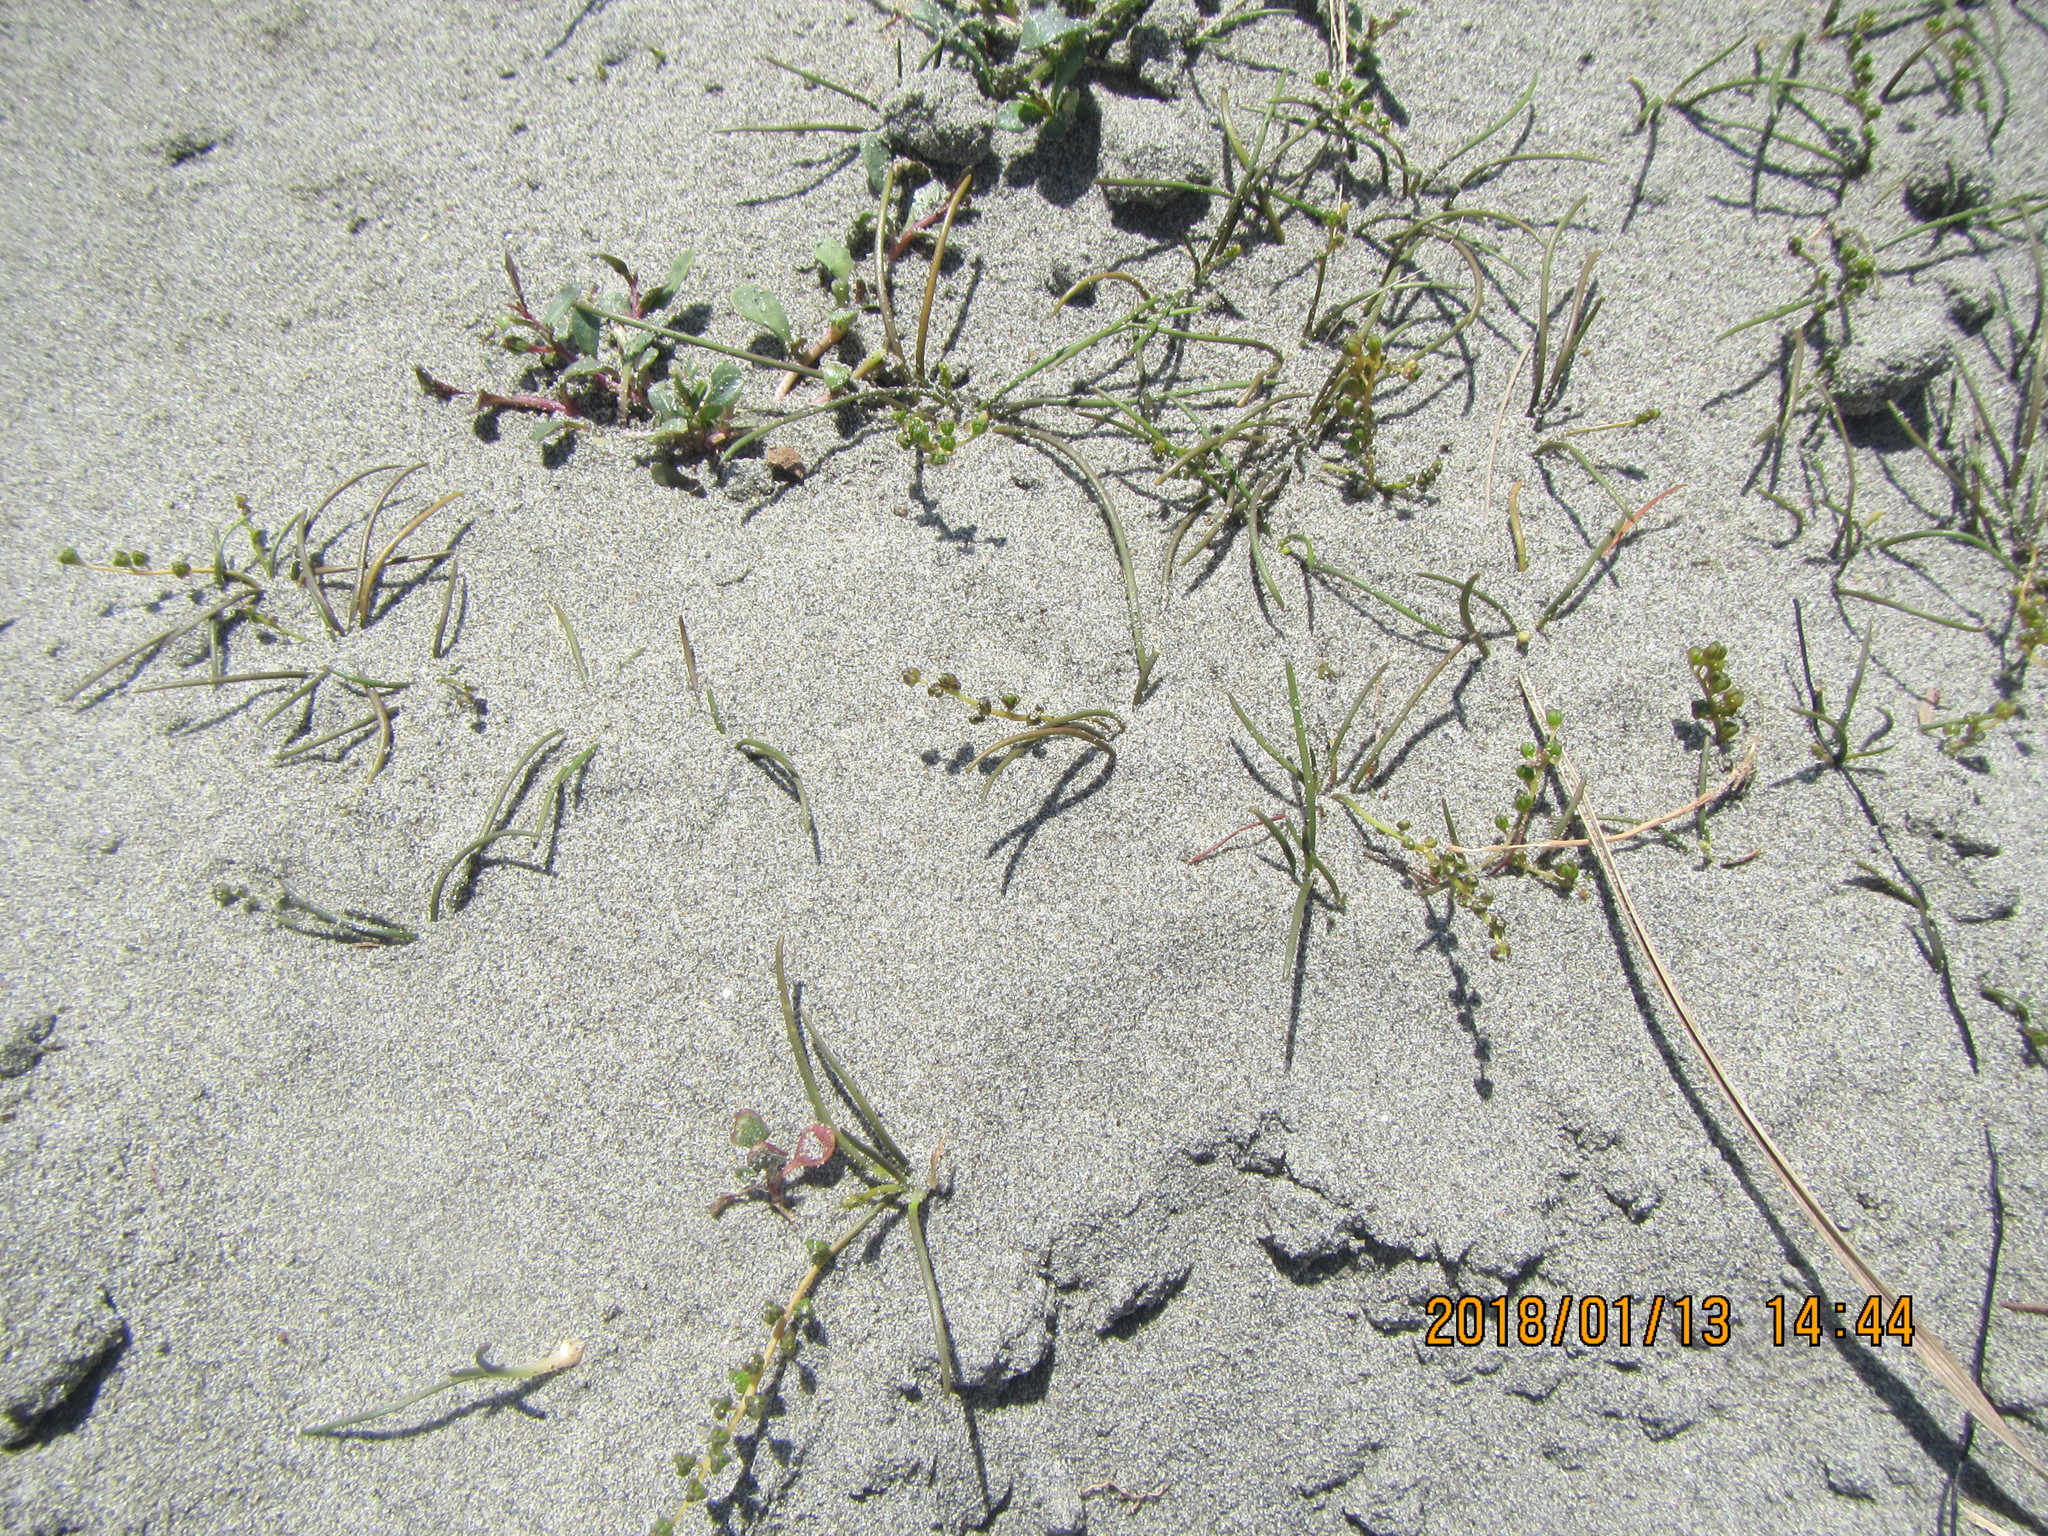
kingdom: Plantae
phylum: Tracheophyta
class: Liliopsida
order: Alismatales
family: Juncaginaceae
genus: Triglochin
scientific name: Triglochin striata
